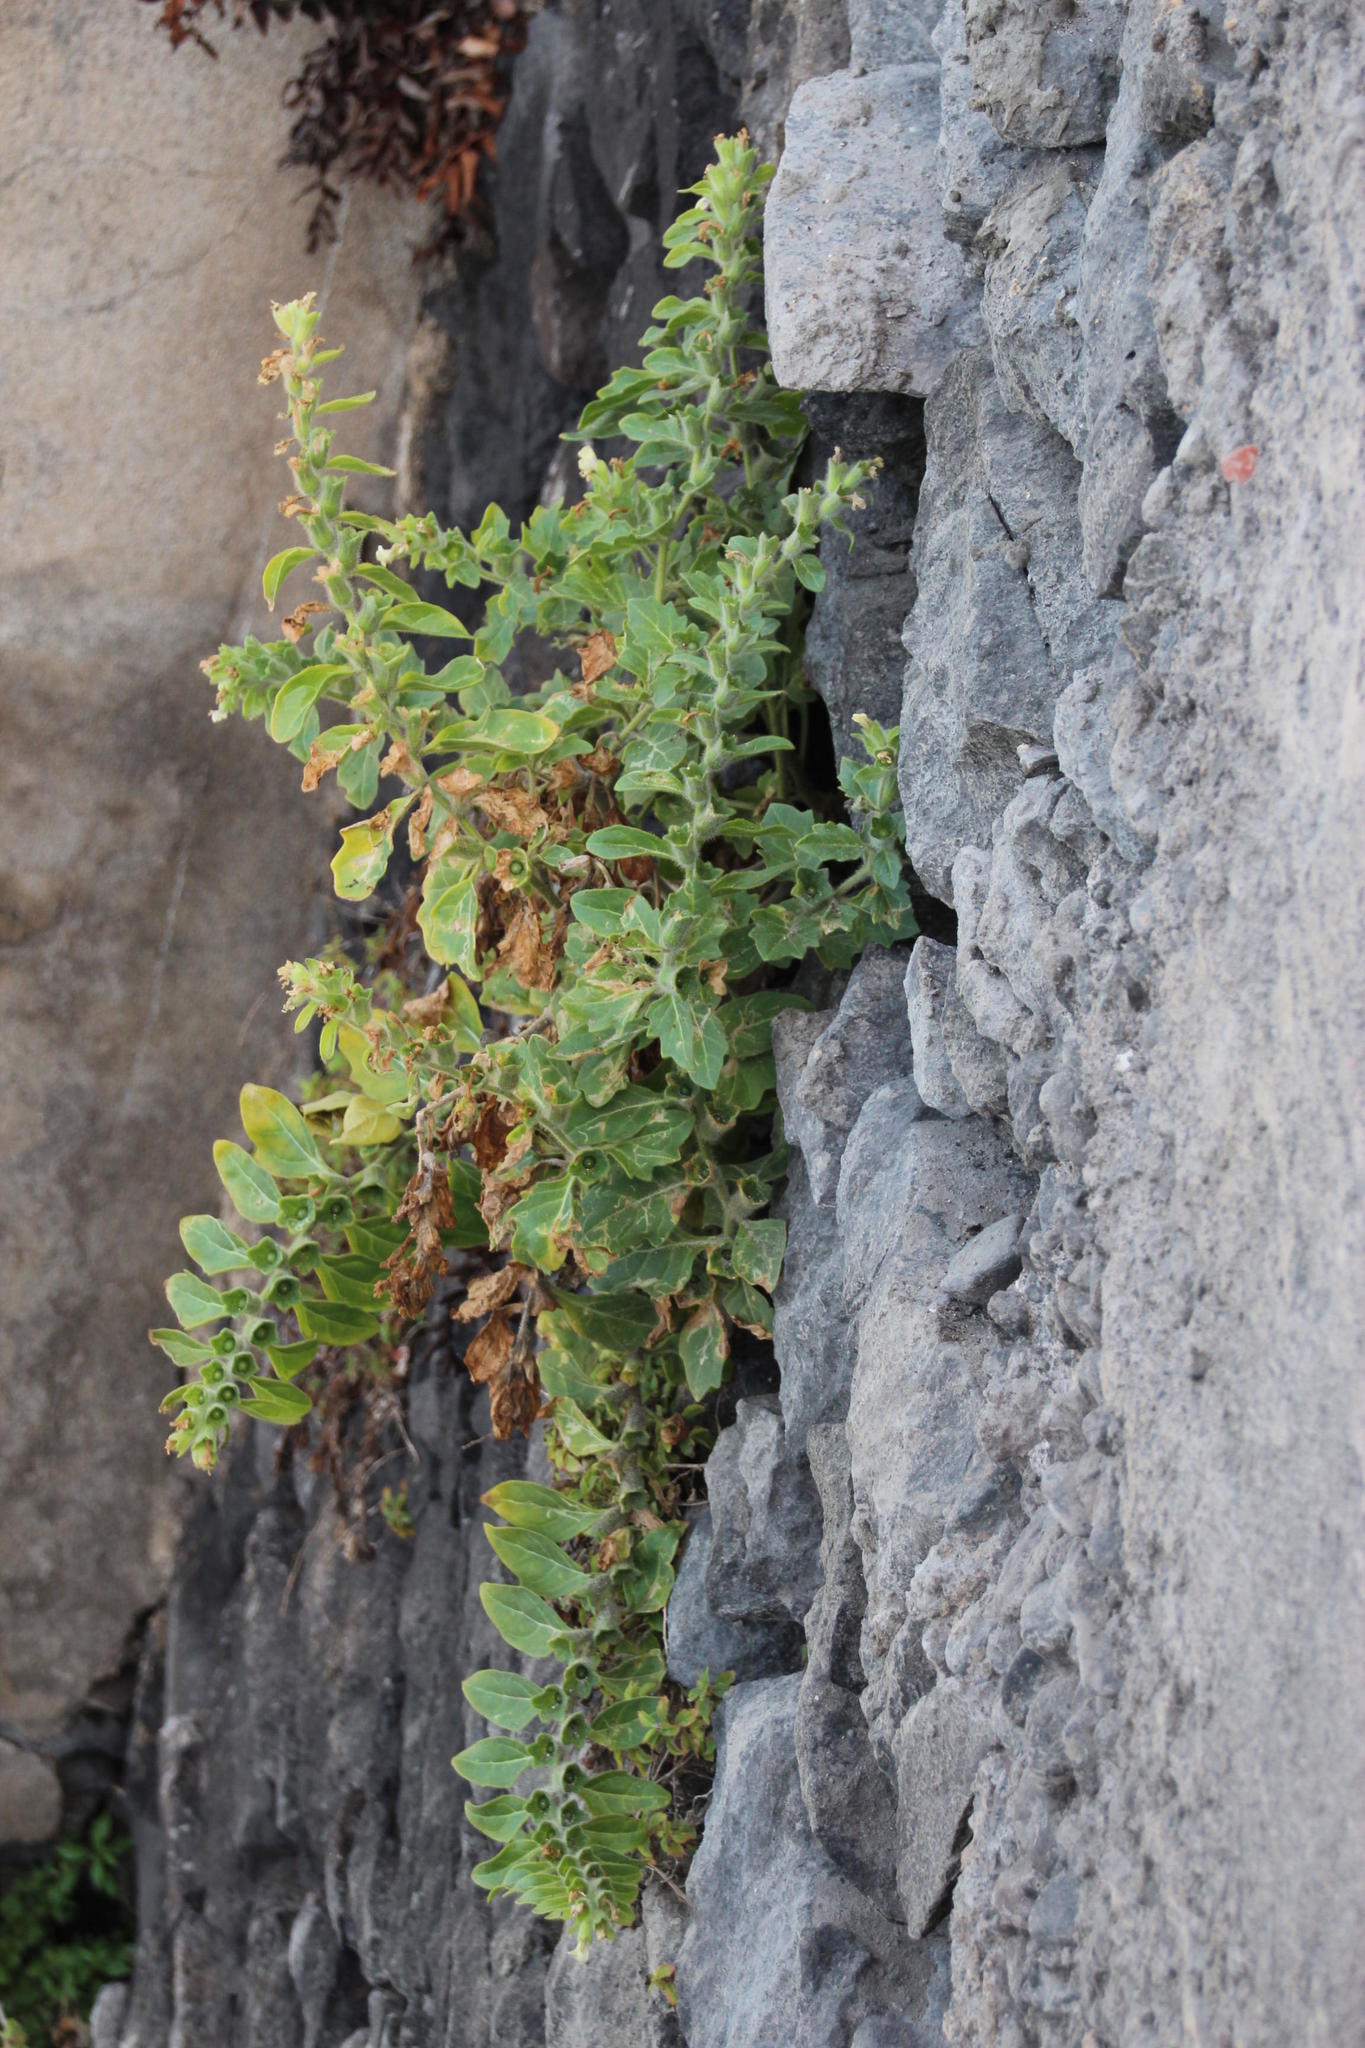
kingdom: Plantae
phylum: Tracheophyta
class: Magnoliopsida
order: Solanales
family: Solanaceae
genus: Hyoscyamus
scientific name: Hyoscyamus albus
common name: White henbane
